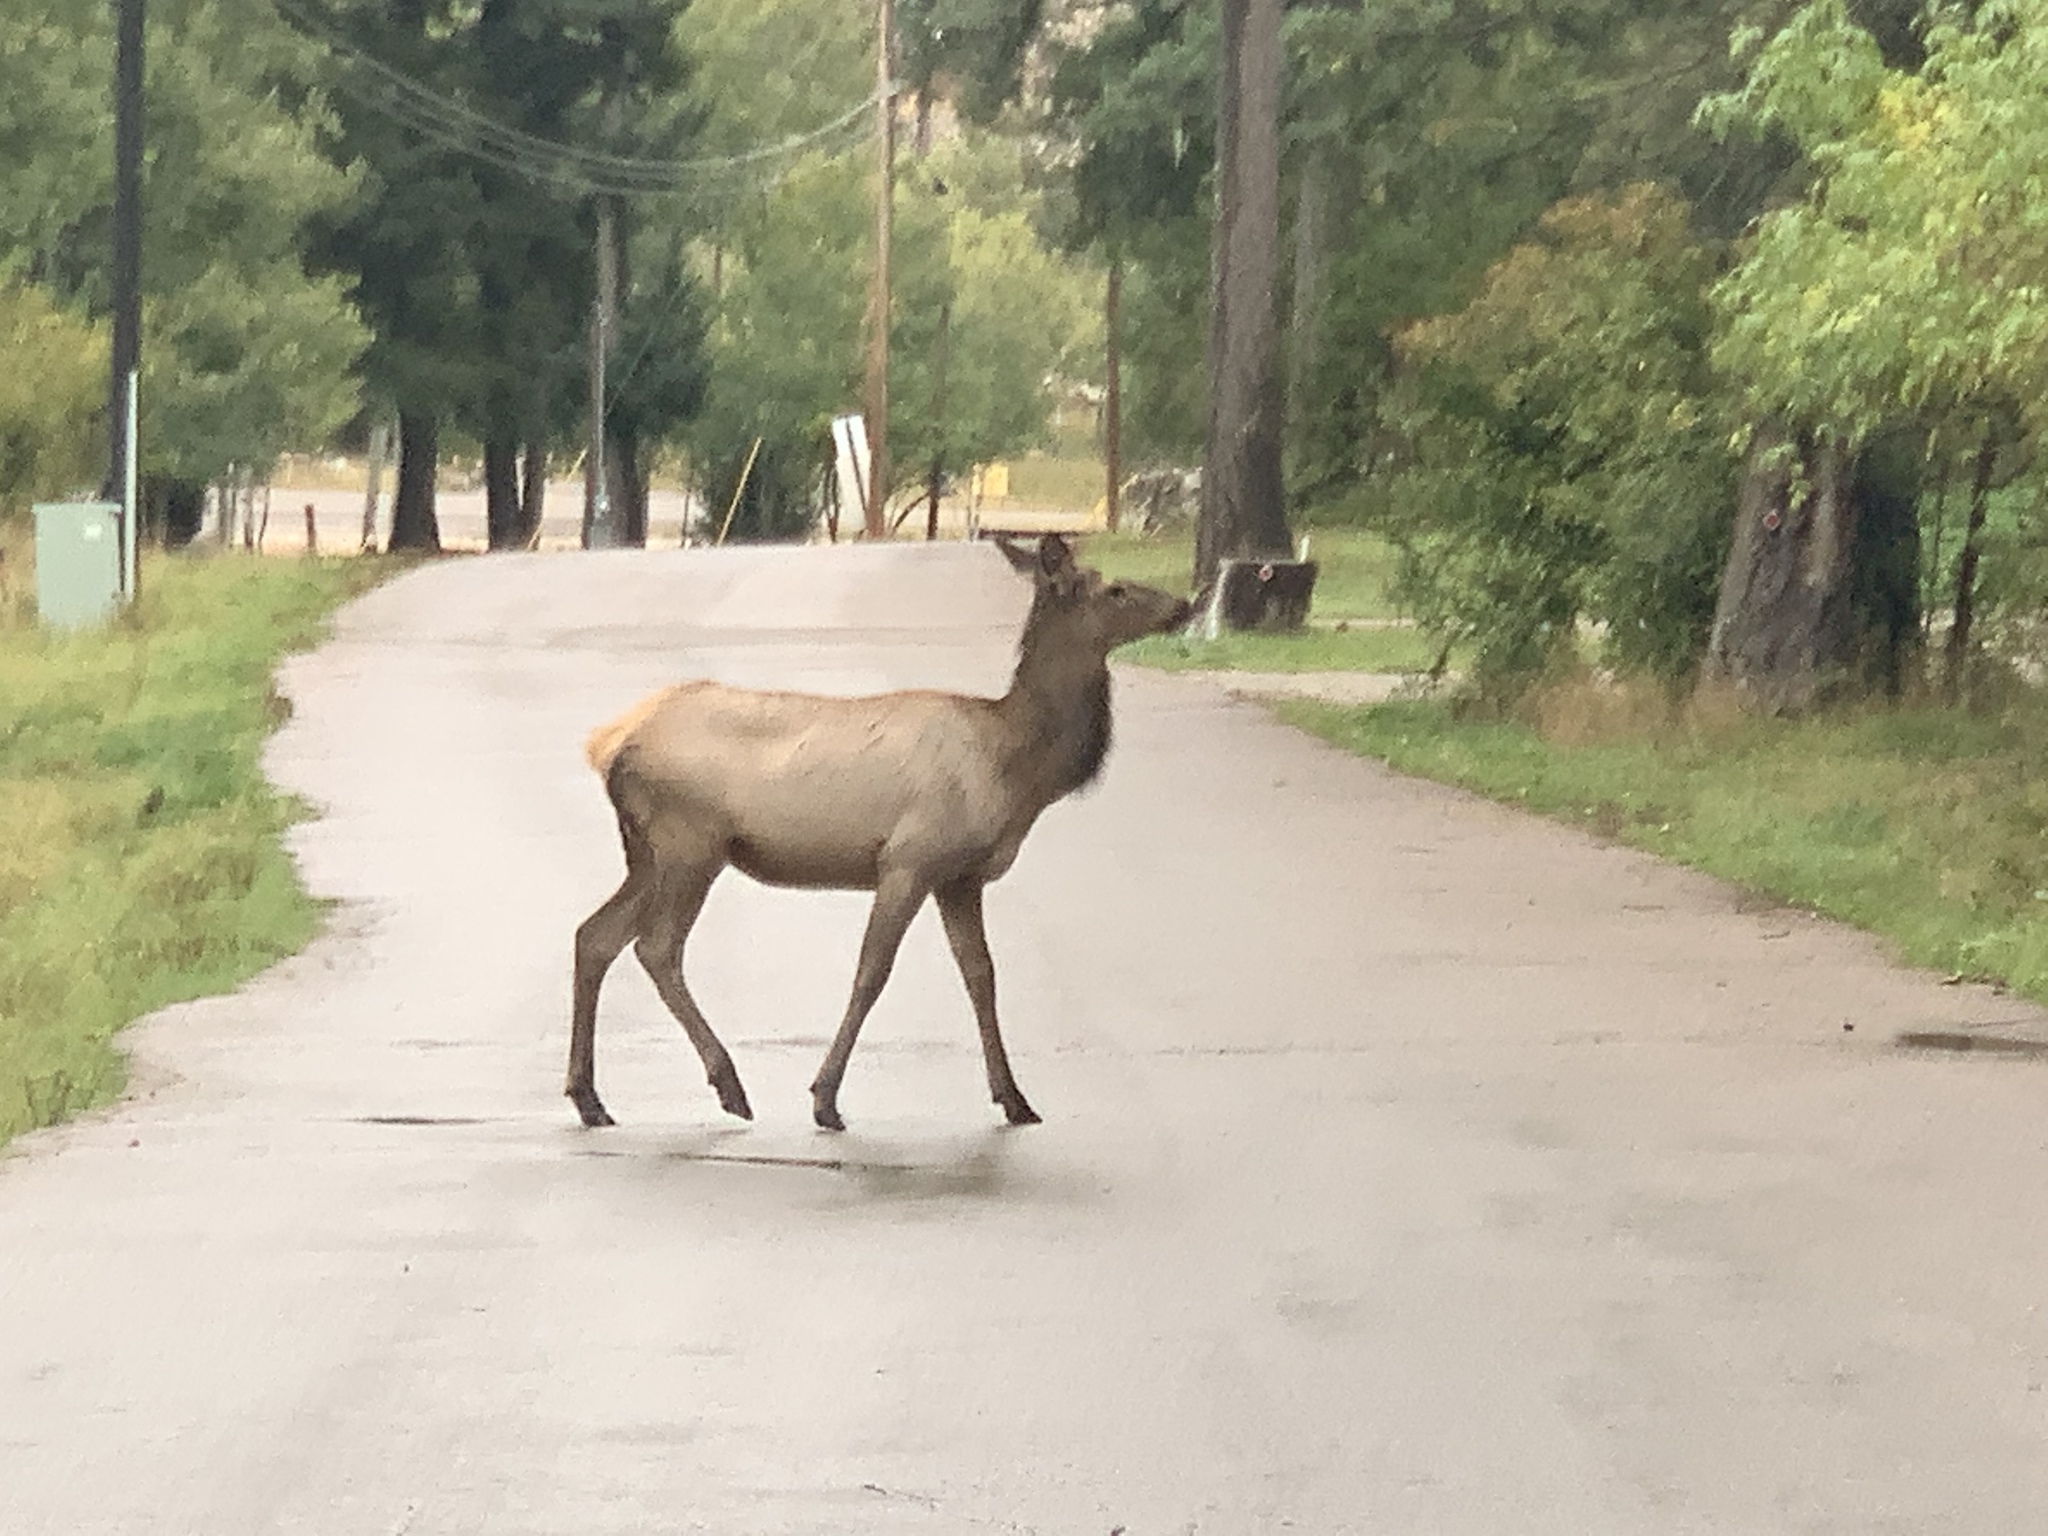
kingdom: Animalia
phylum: Chordata
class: Mammalia
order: Artiodactyla
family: Cervidae
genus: Cervus
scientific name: Cervus elaphus
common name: Red deer
